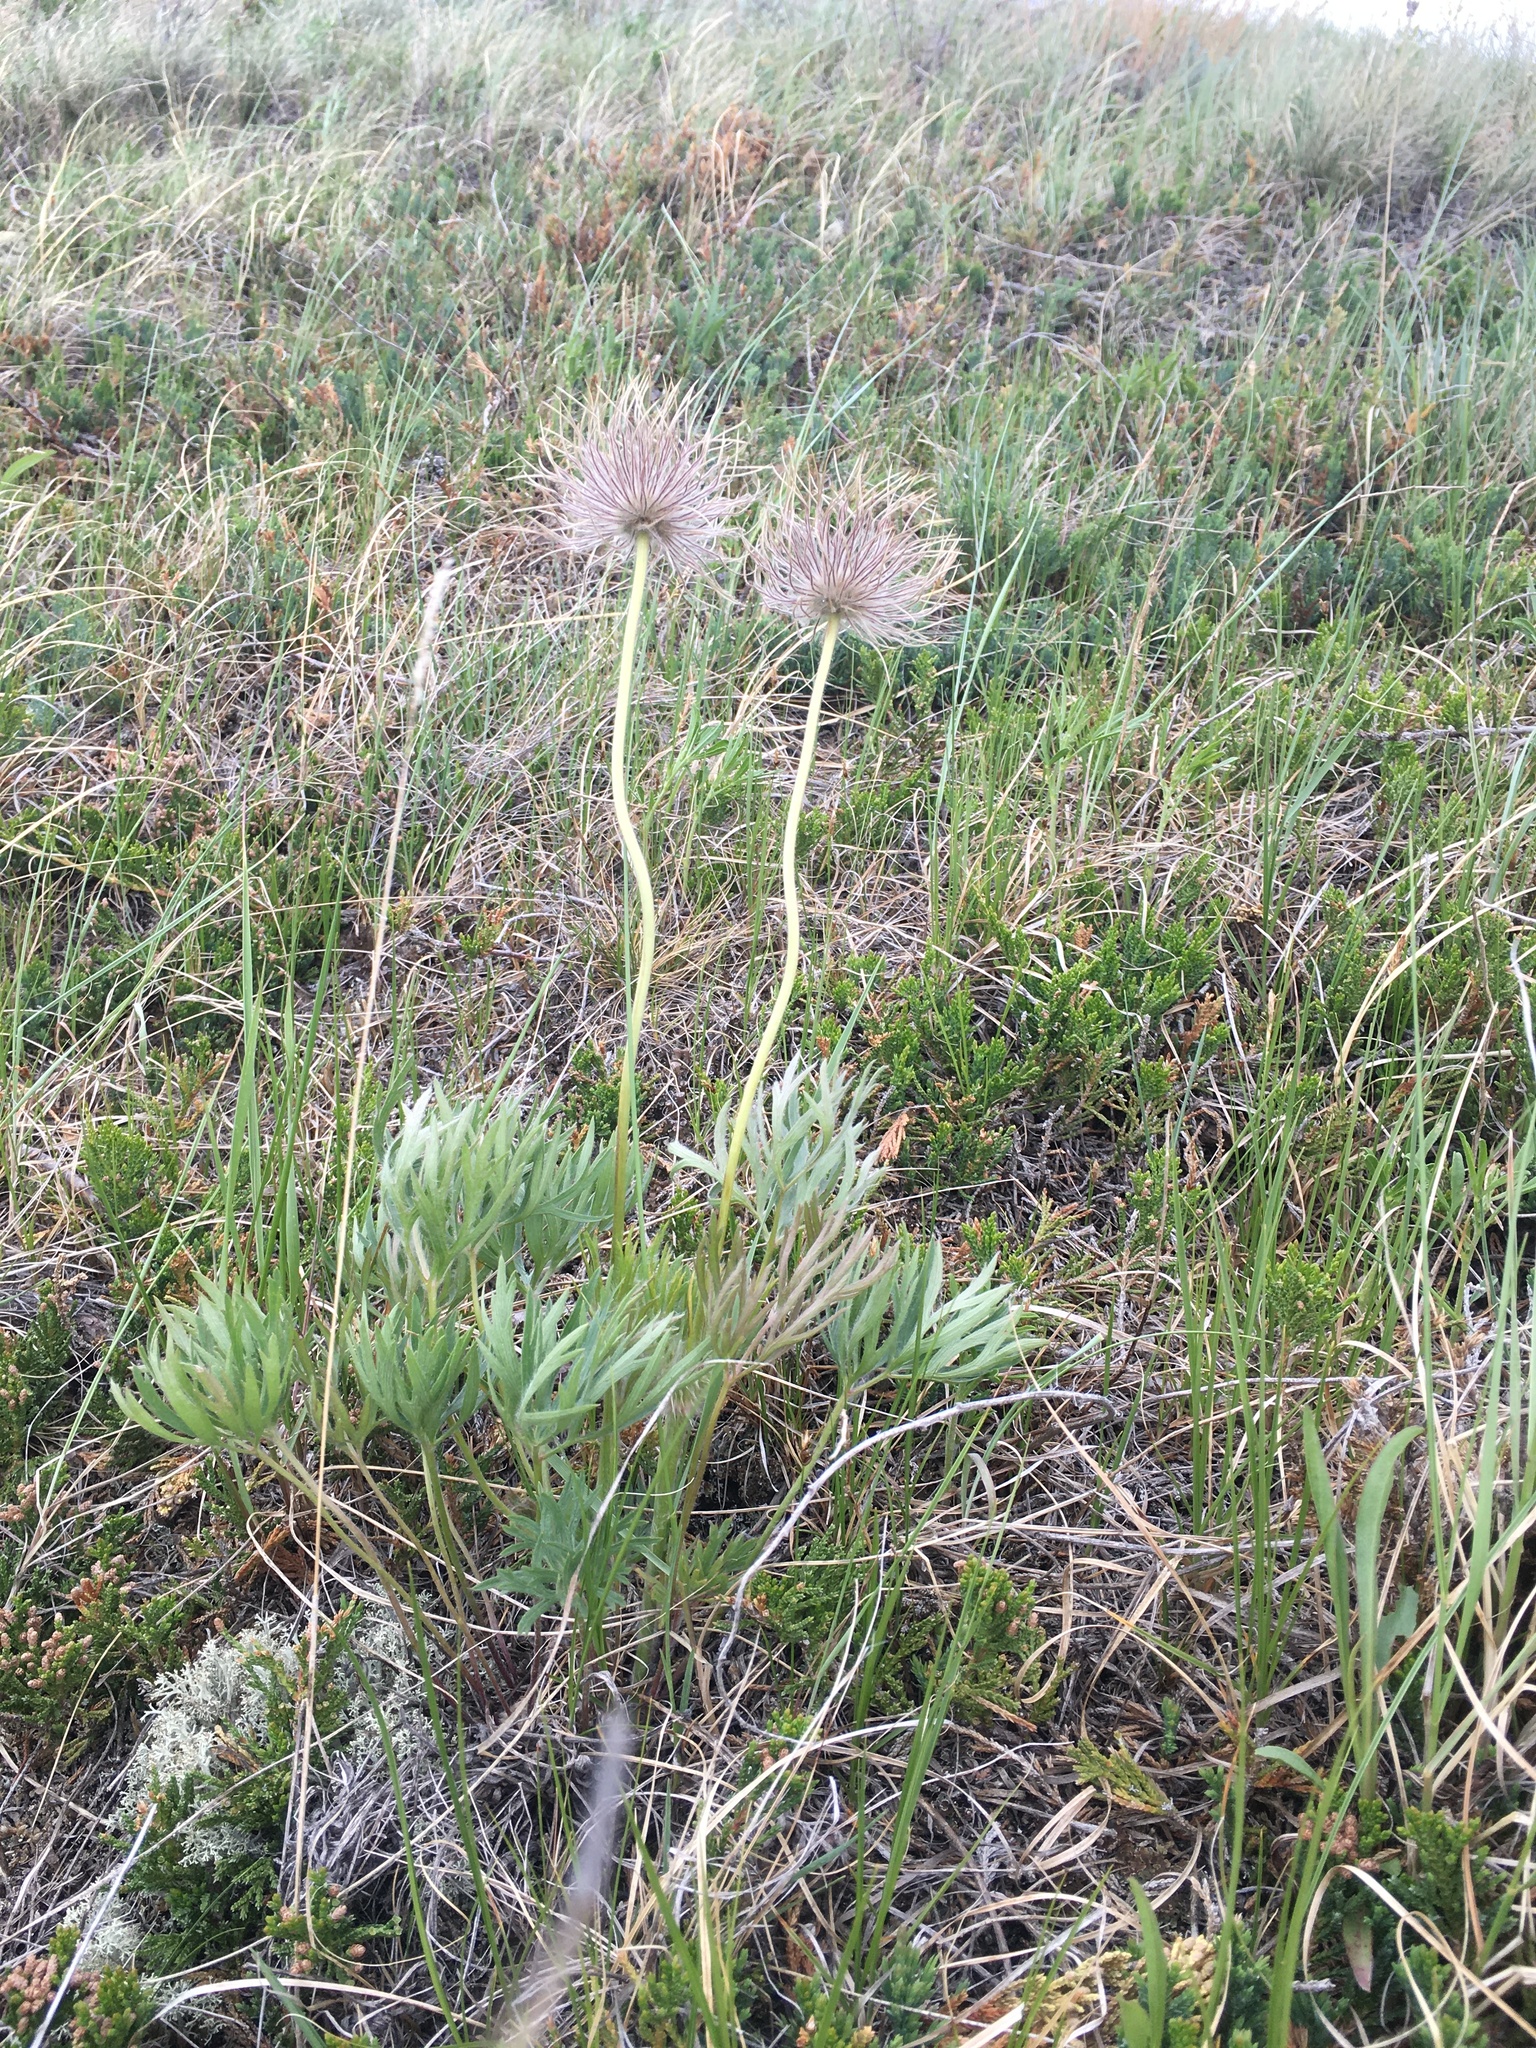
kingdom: Plantae
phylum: Tracheophyta
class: Magnoliopsida
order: Ranunculales
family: Ranunculaceae
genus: Pulsatilla
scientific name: Pulsatilla nuttalliana
